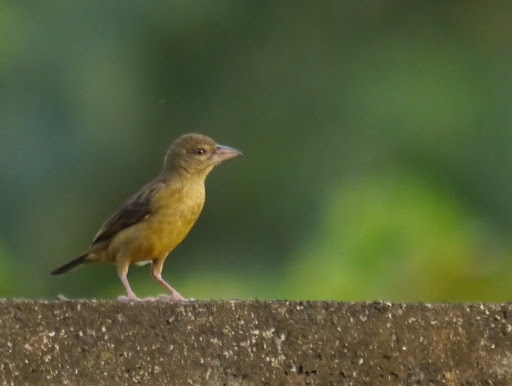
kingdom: Animalia
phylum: Chordata
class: Aves
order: Passeriformes
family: Ploceidae
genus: Ploceus
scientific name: Ploceus nigerrimus
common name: Vieillot's black weaver
